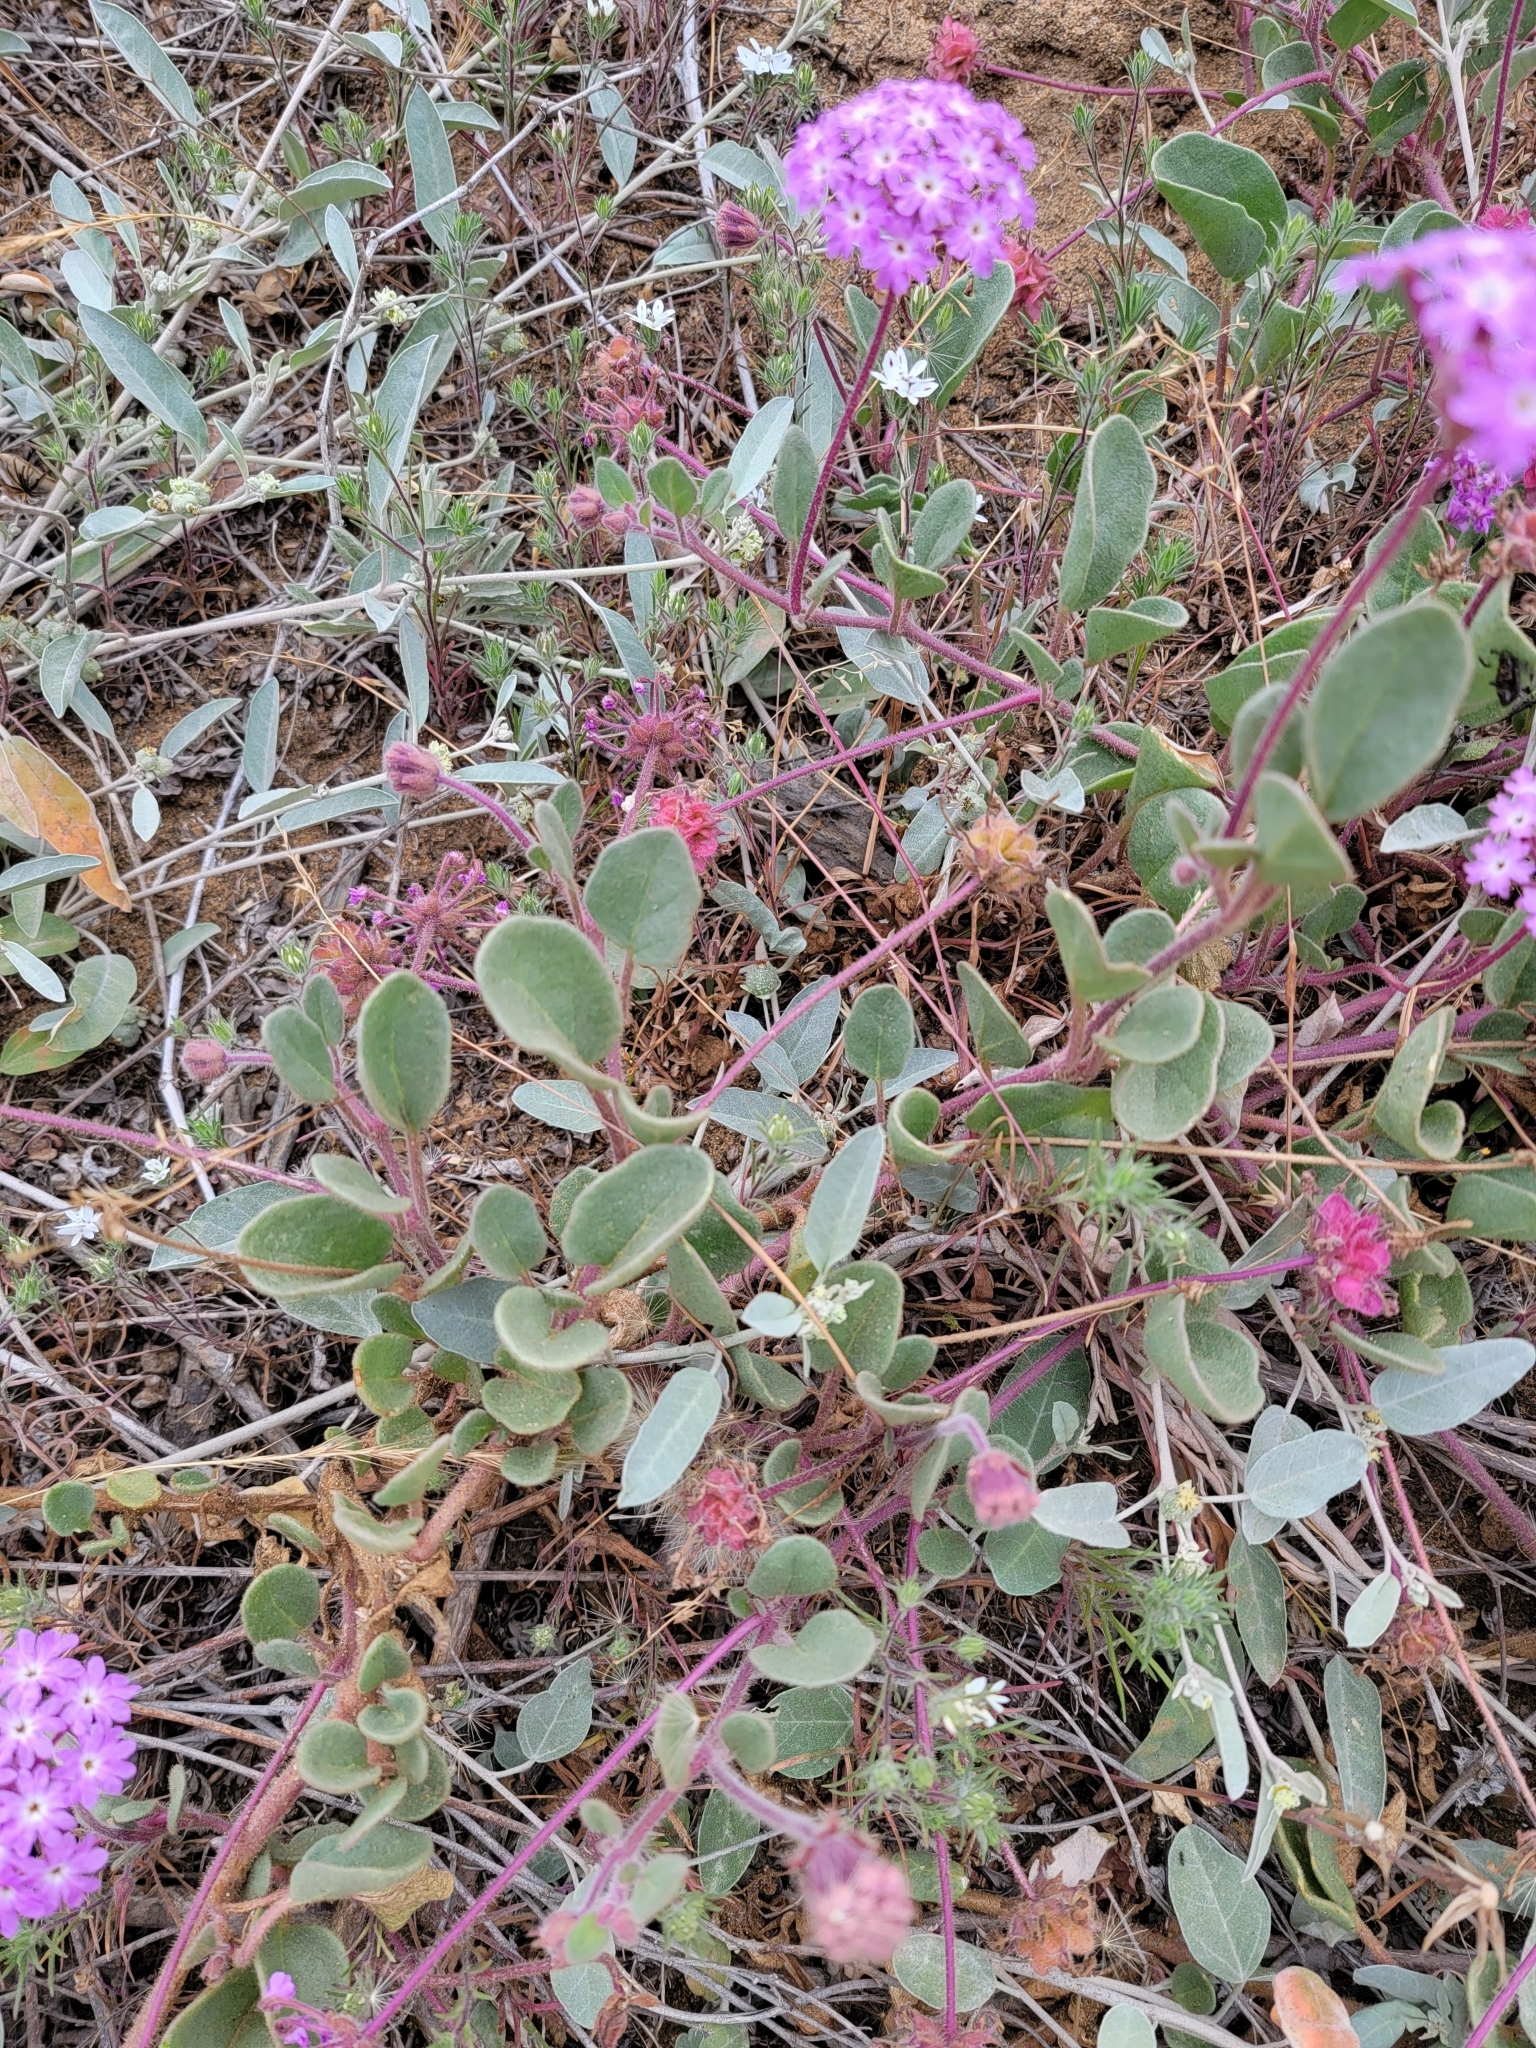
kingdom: Plantae
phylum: Tracheophyta
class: Magnoliopsida
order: Caryophyllales
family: Nyctaginaceae
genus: Abronia
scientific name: Abronia umbellata
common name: Sand-verbena
